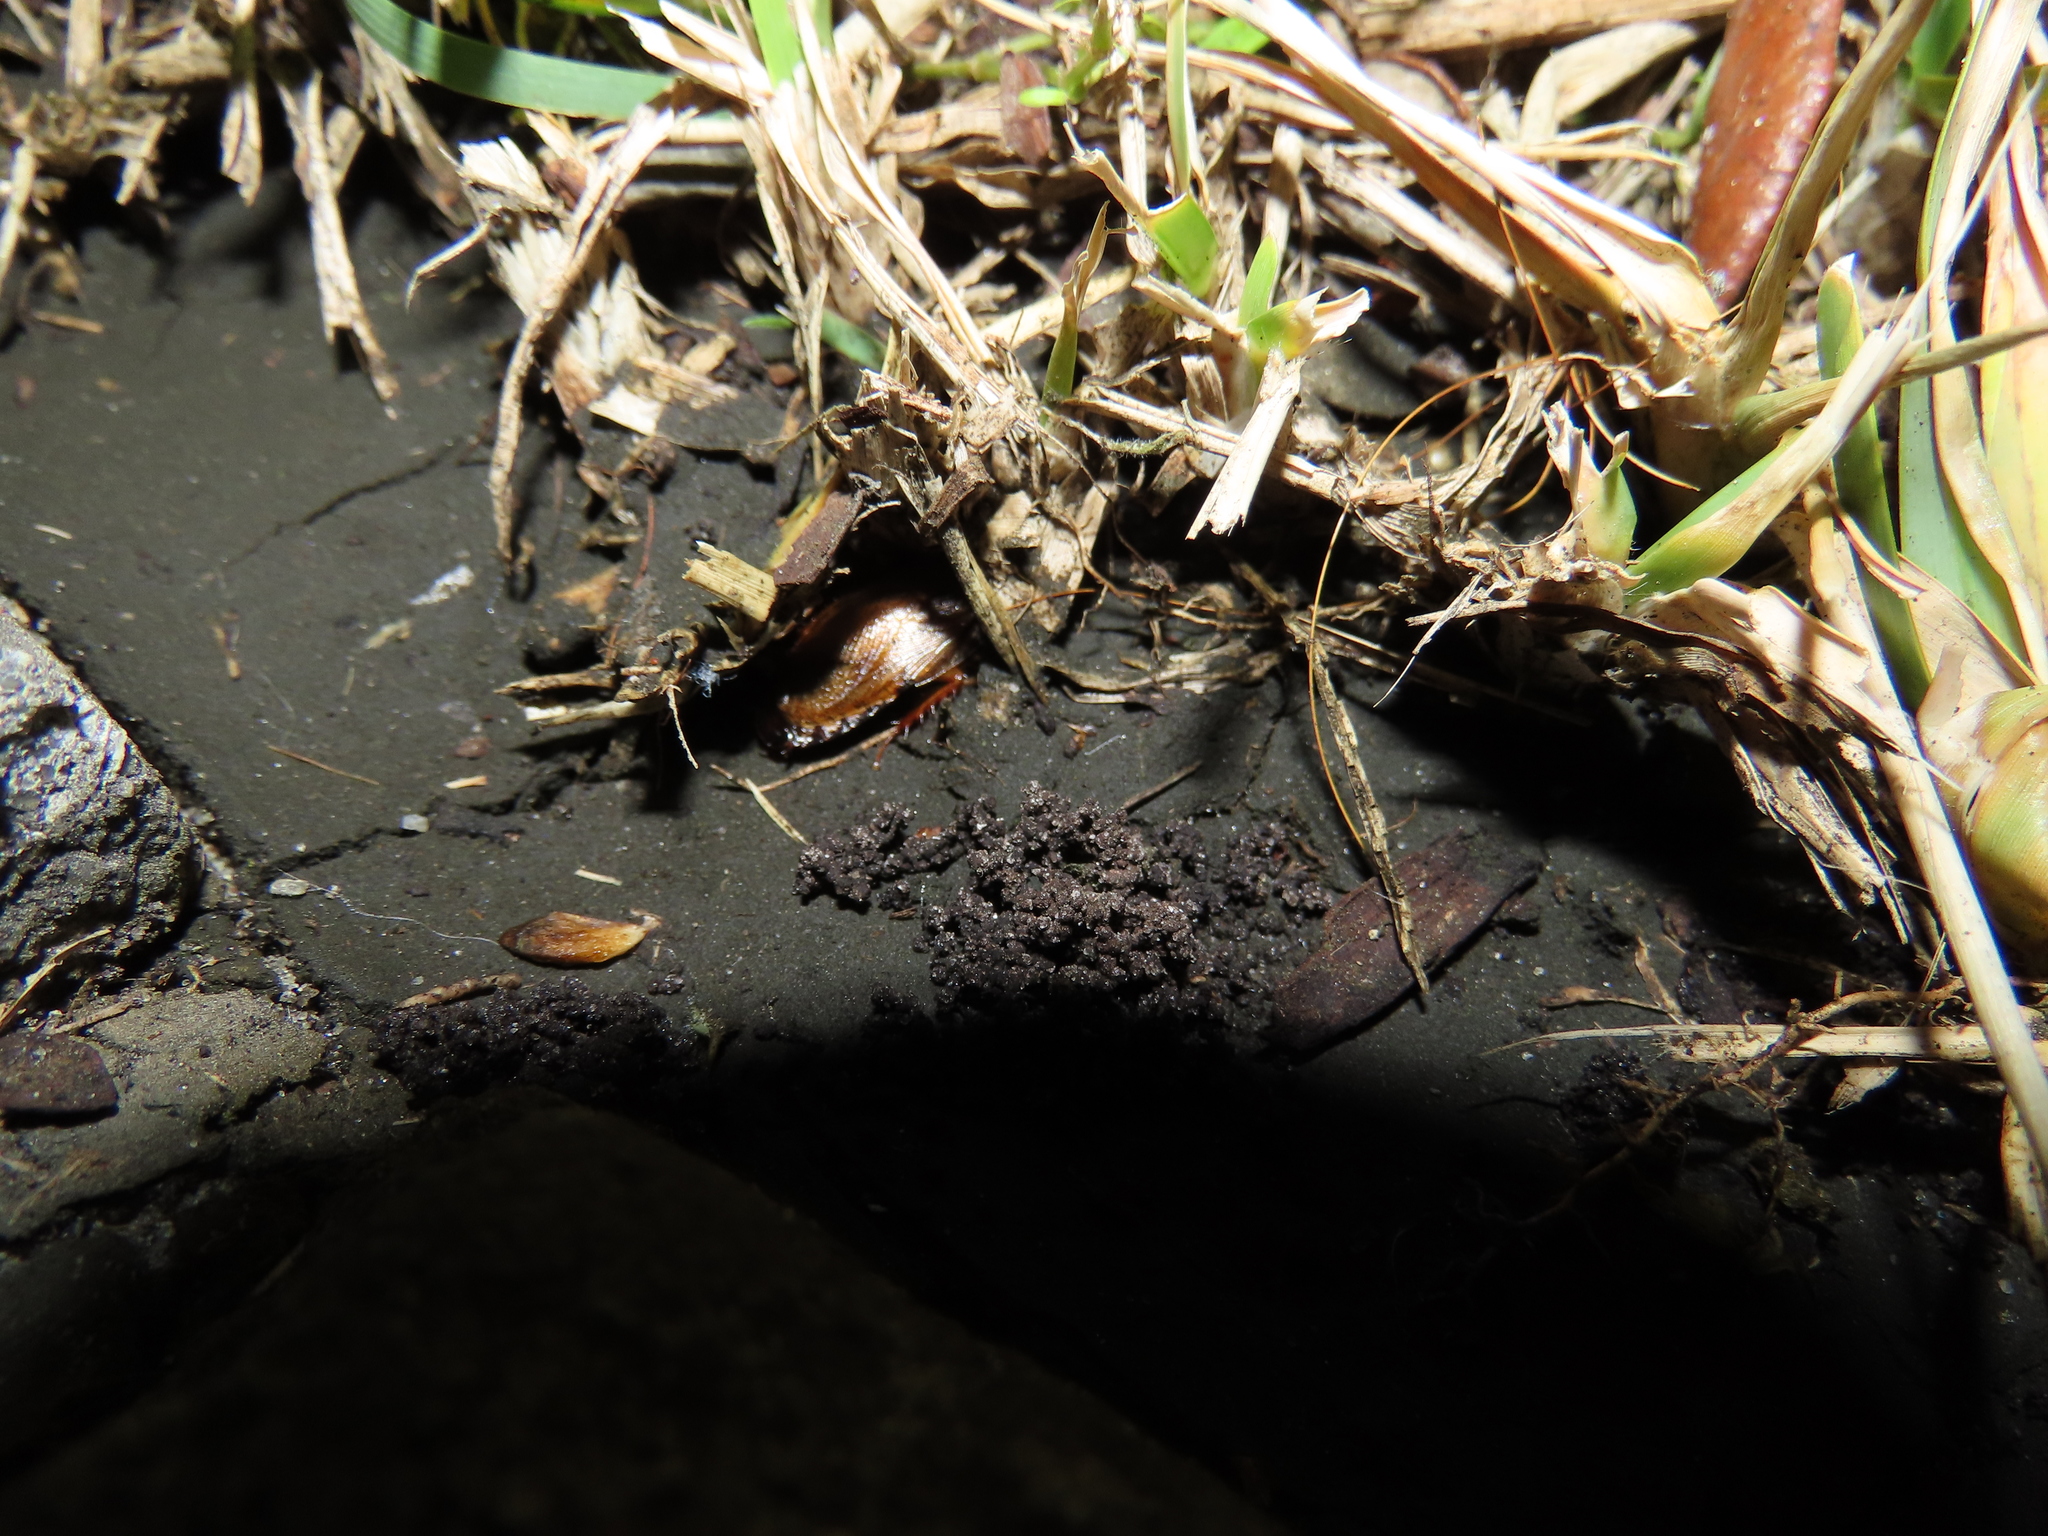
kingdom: Animalia
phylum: Arthropoda
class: Insecta
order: Blattodea
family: Blaberidae
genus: Pycnoscelus
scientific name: Pycnoscelus surinamensis
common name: Surinam cockroach
